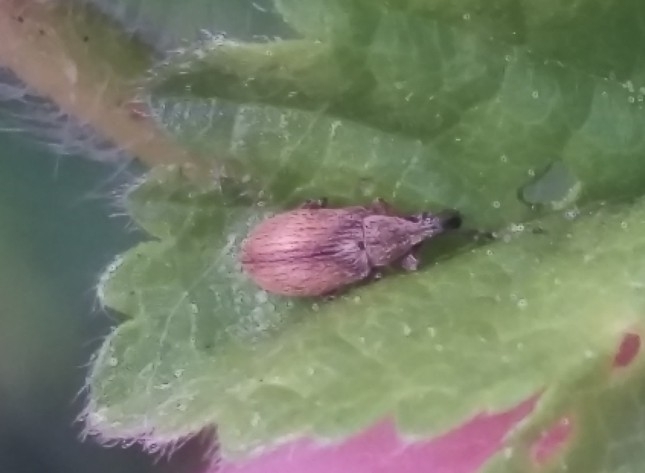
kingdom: Animalia
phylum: Arthropoda
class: Insecta
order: Coleoptera
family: Apionidae
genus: Malvapion
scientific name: Malvapion malvae
